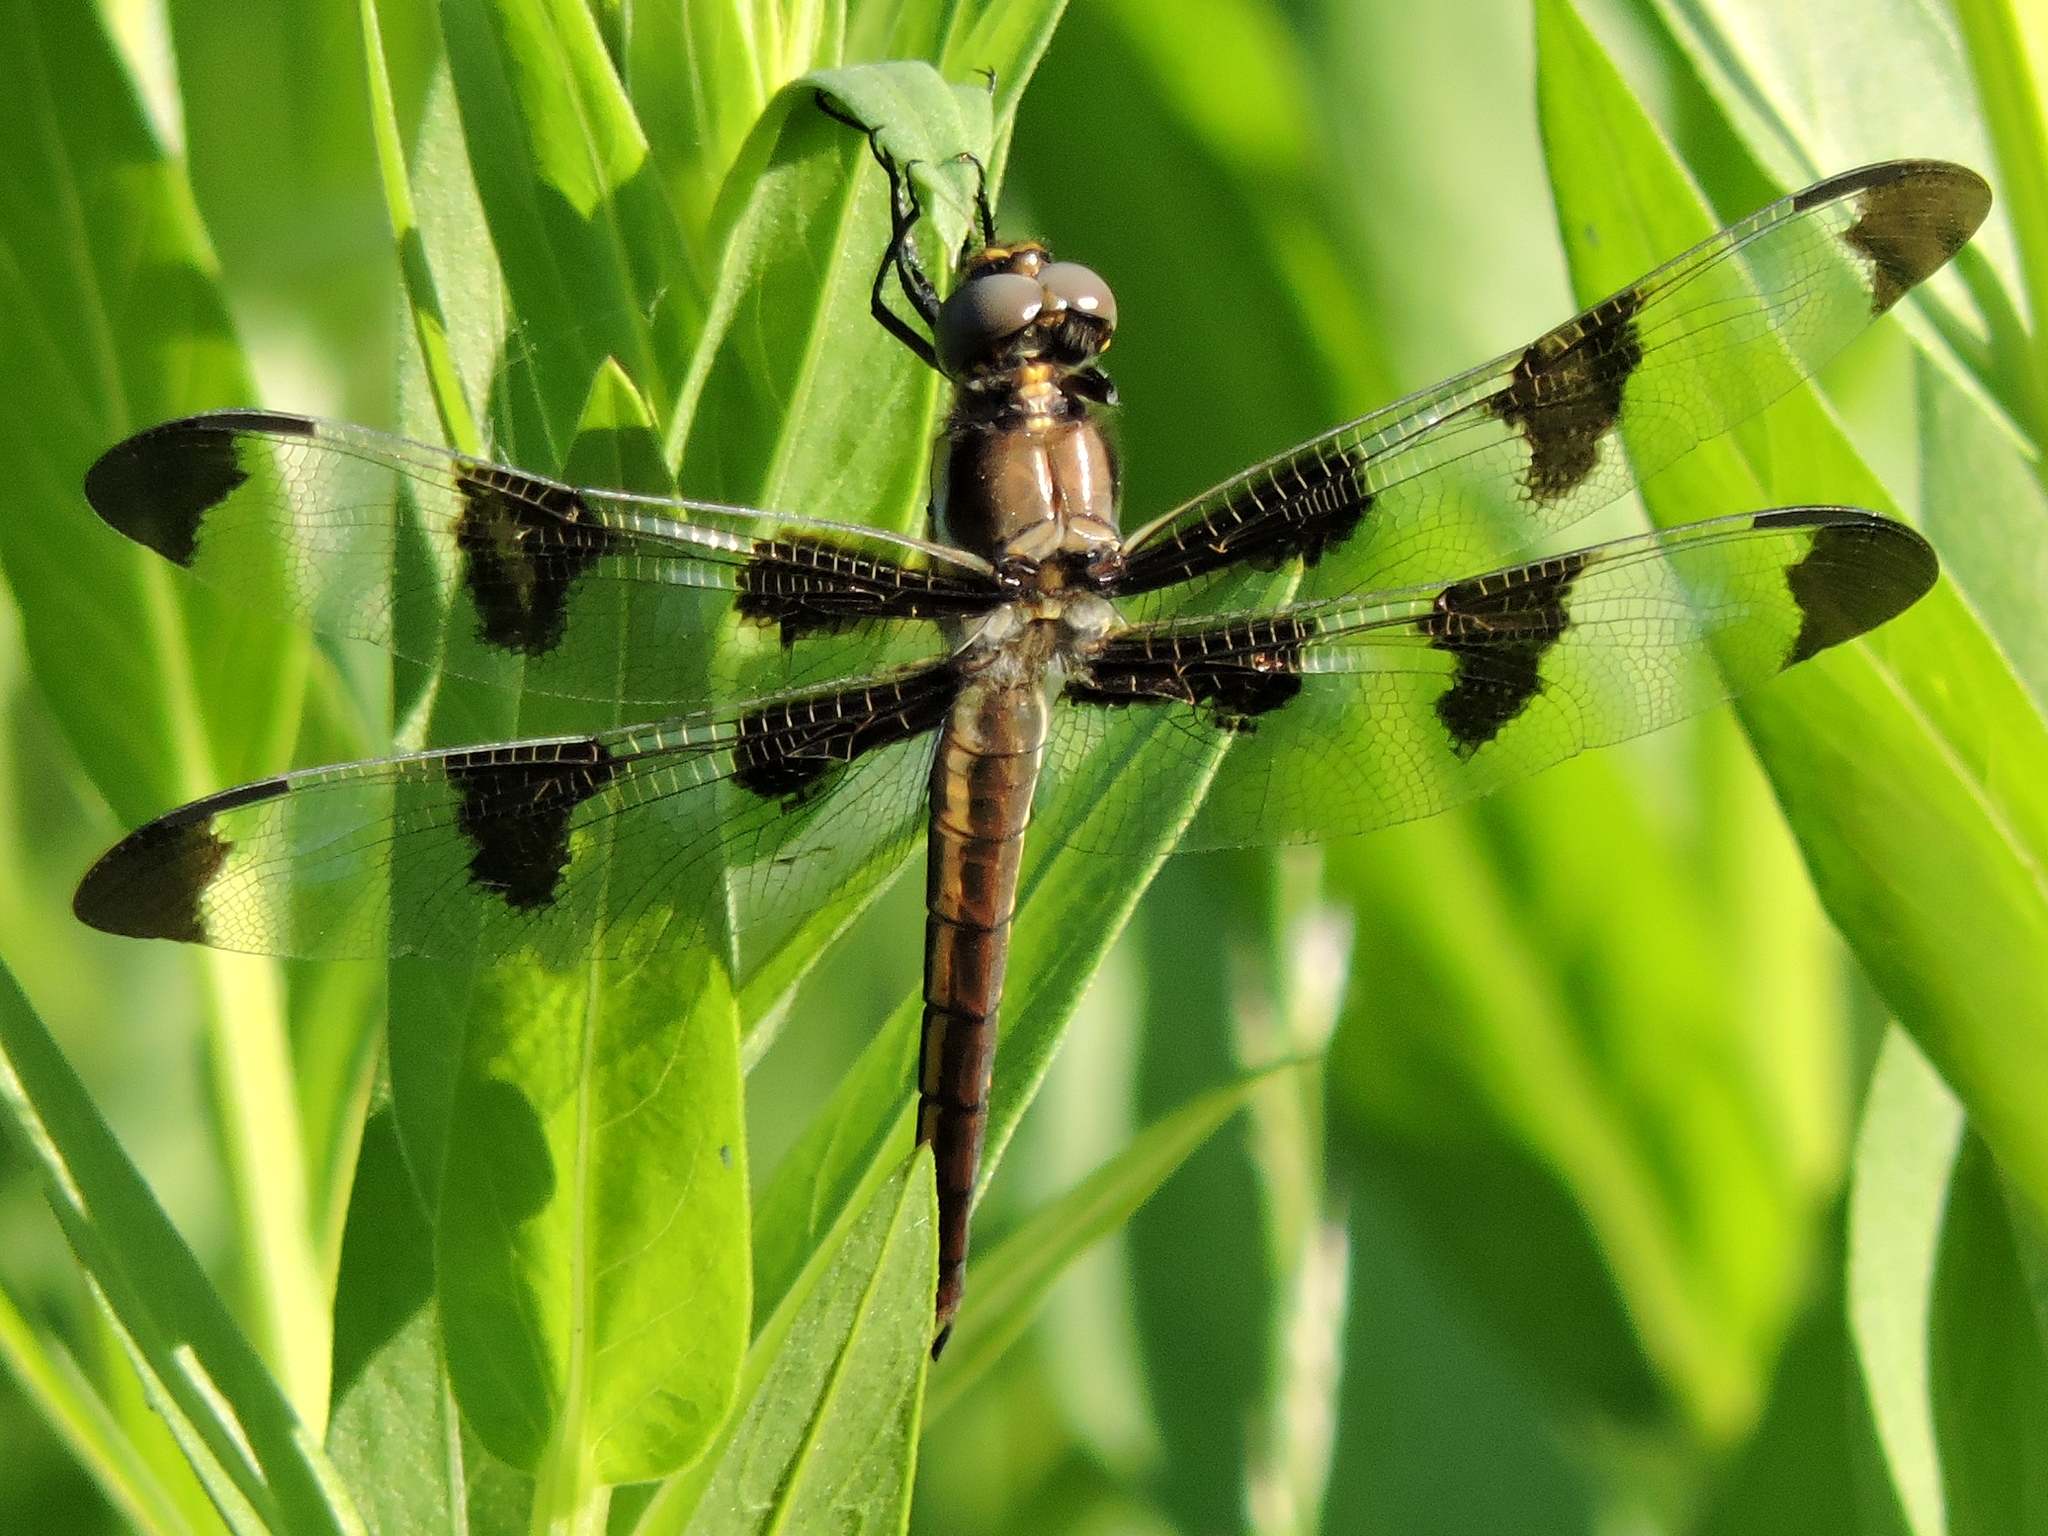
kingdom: Animalia
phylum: Arthropoda
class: Insecta
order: Odonata
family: Libellulidae
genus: Libellula
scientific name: Libellula pulchella
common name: Twelve-spotted skimmer
